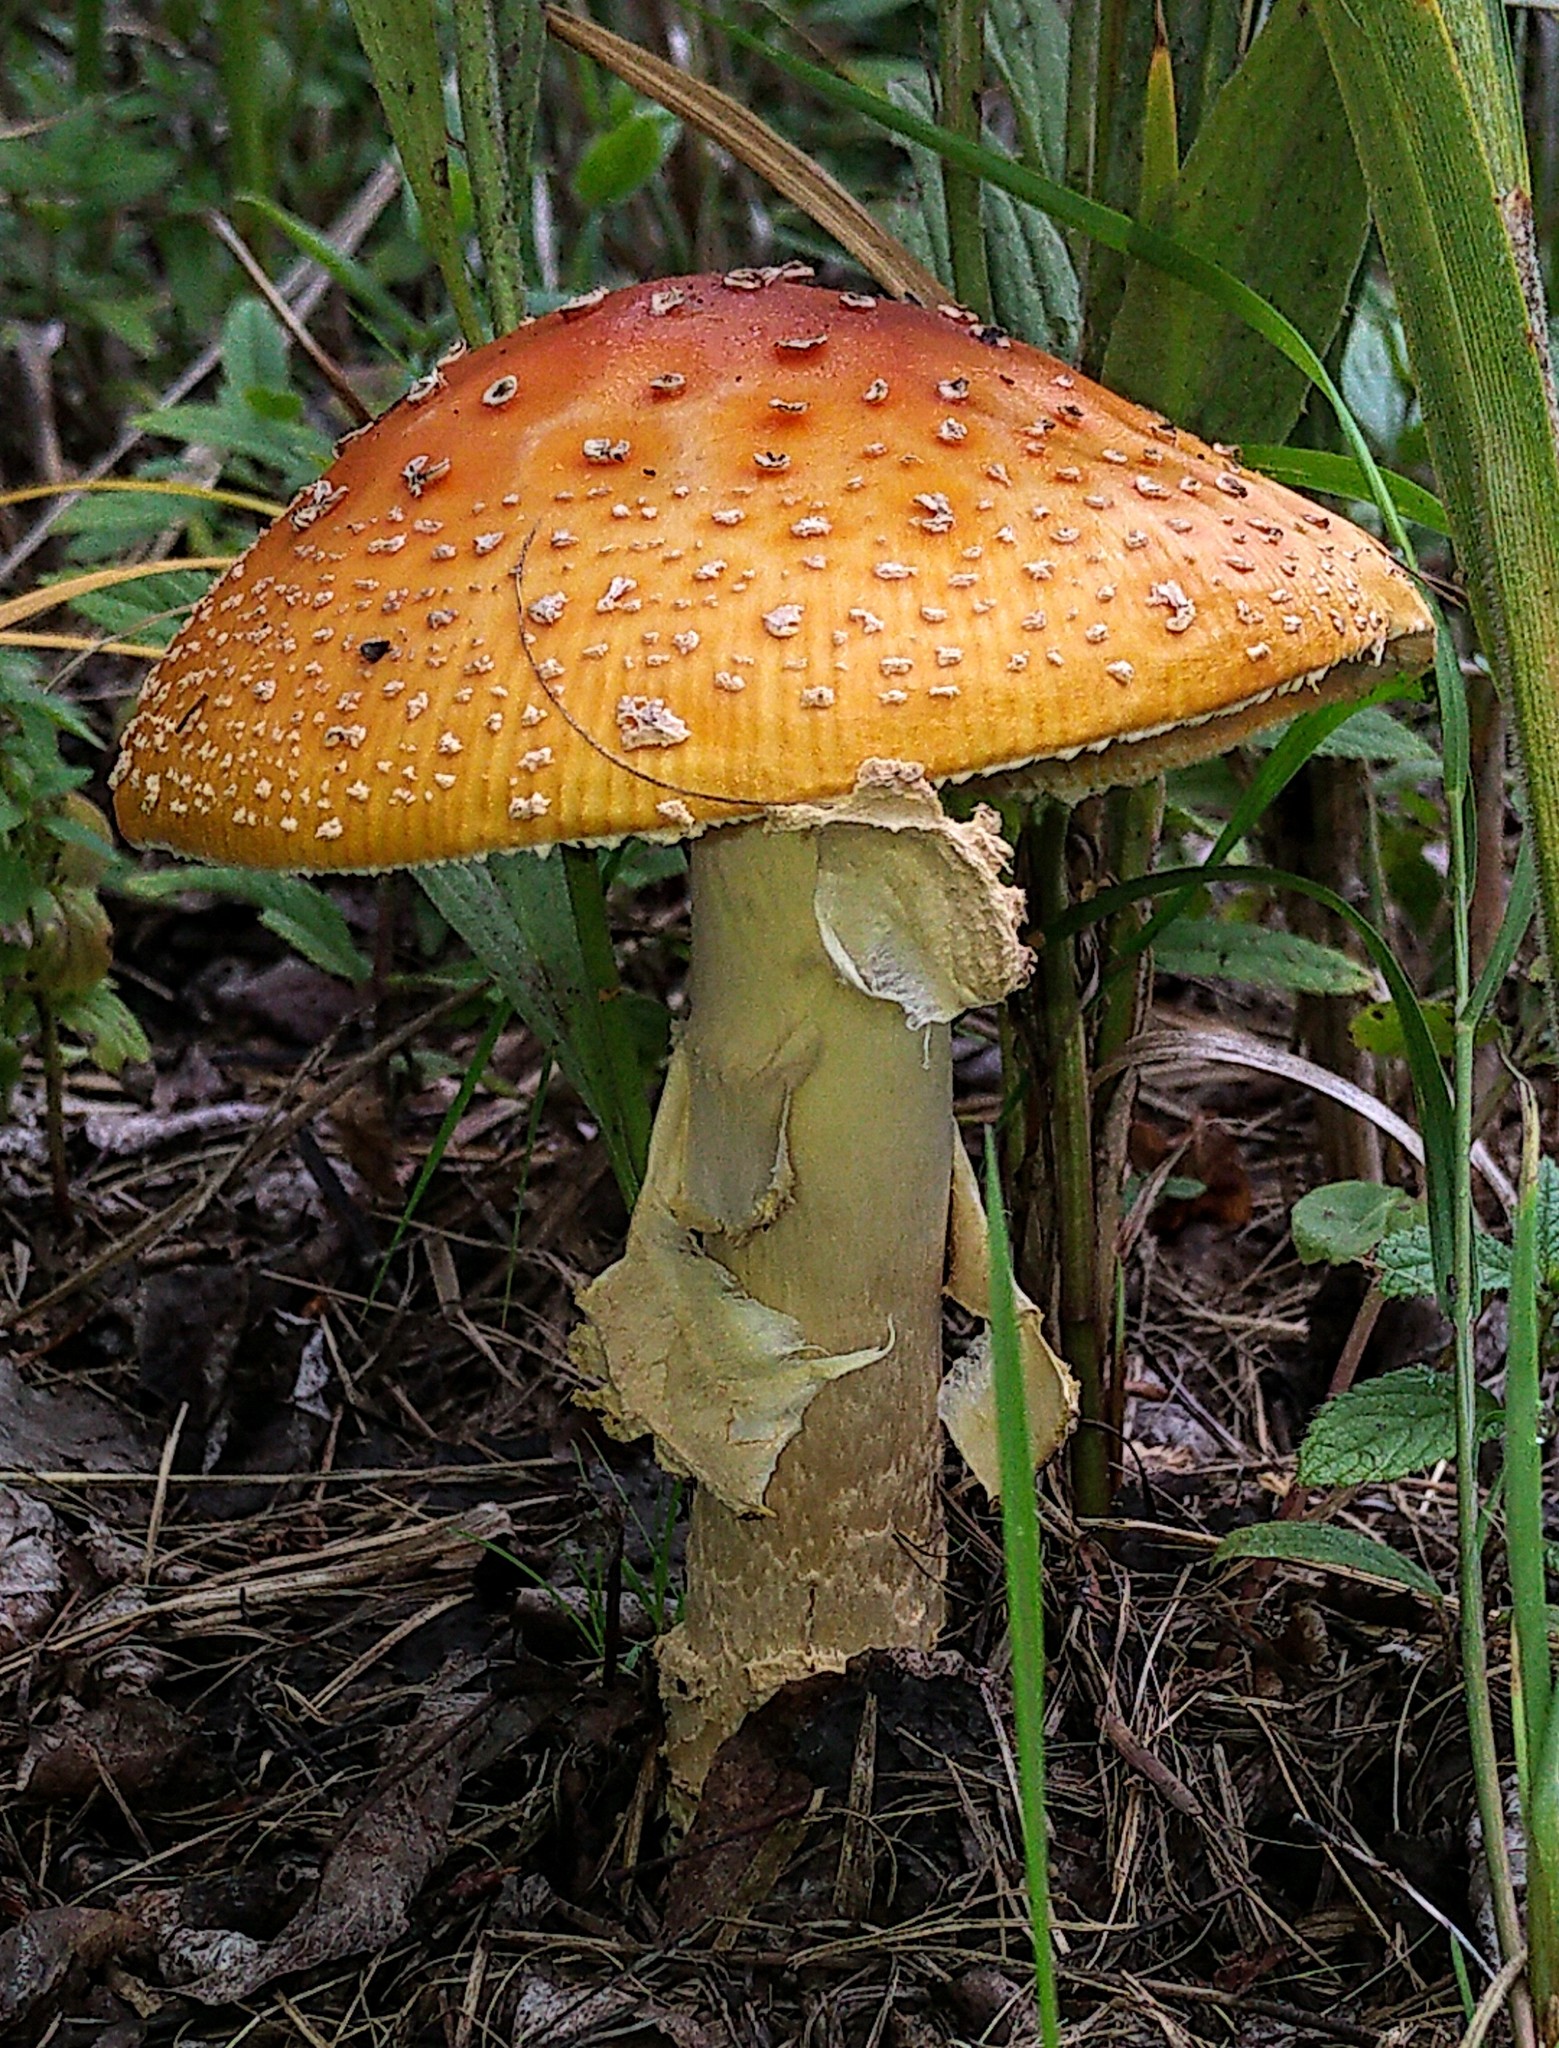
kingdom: Fungi
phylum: Basidiomycota
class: Agaricomycetes
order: Agaricales
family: Amanitaceae
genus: Amanita
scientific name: Amanita muscaria
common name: Fly agaric
